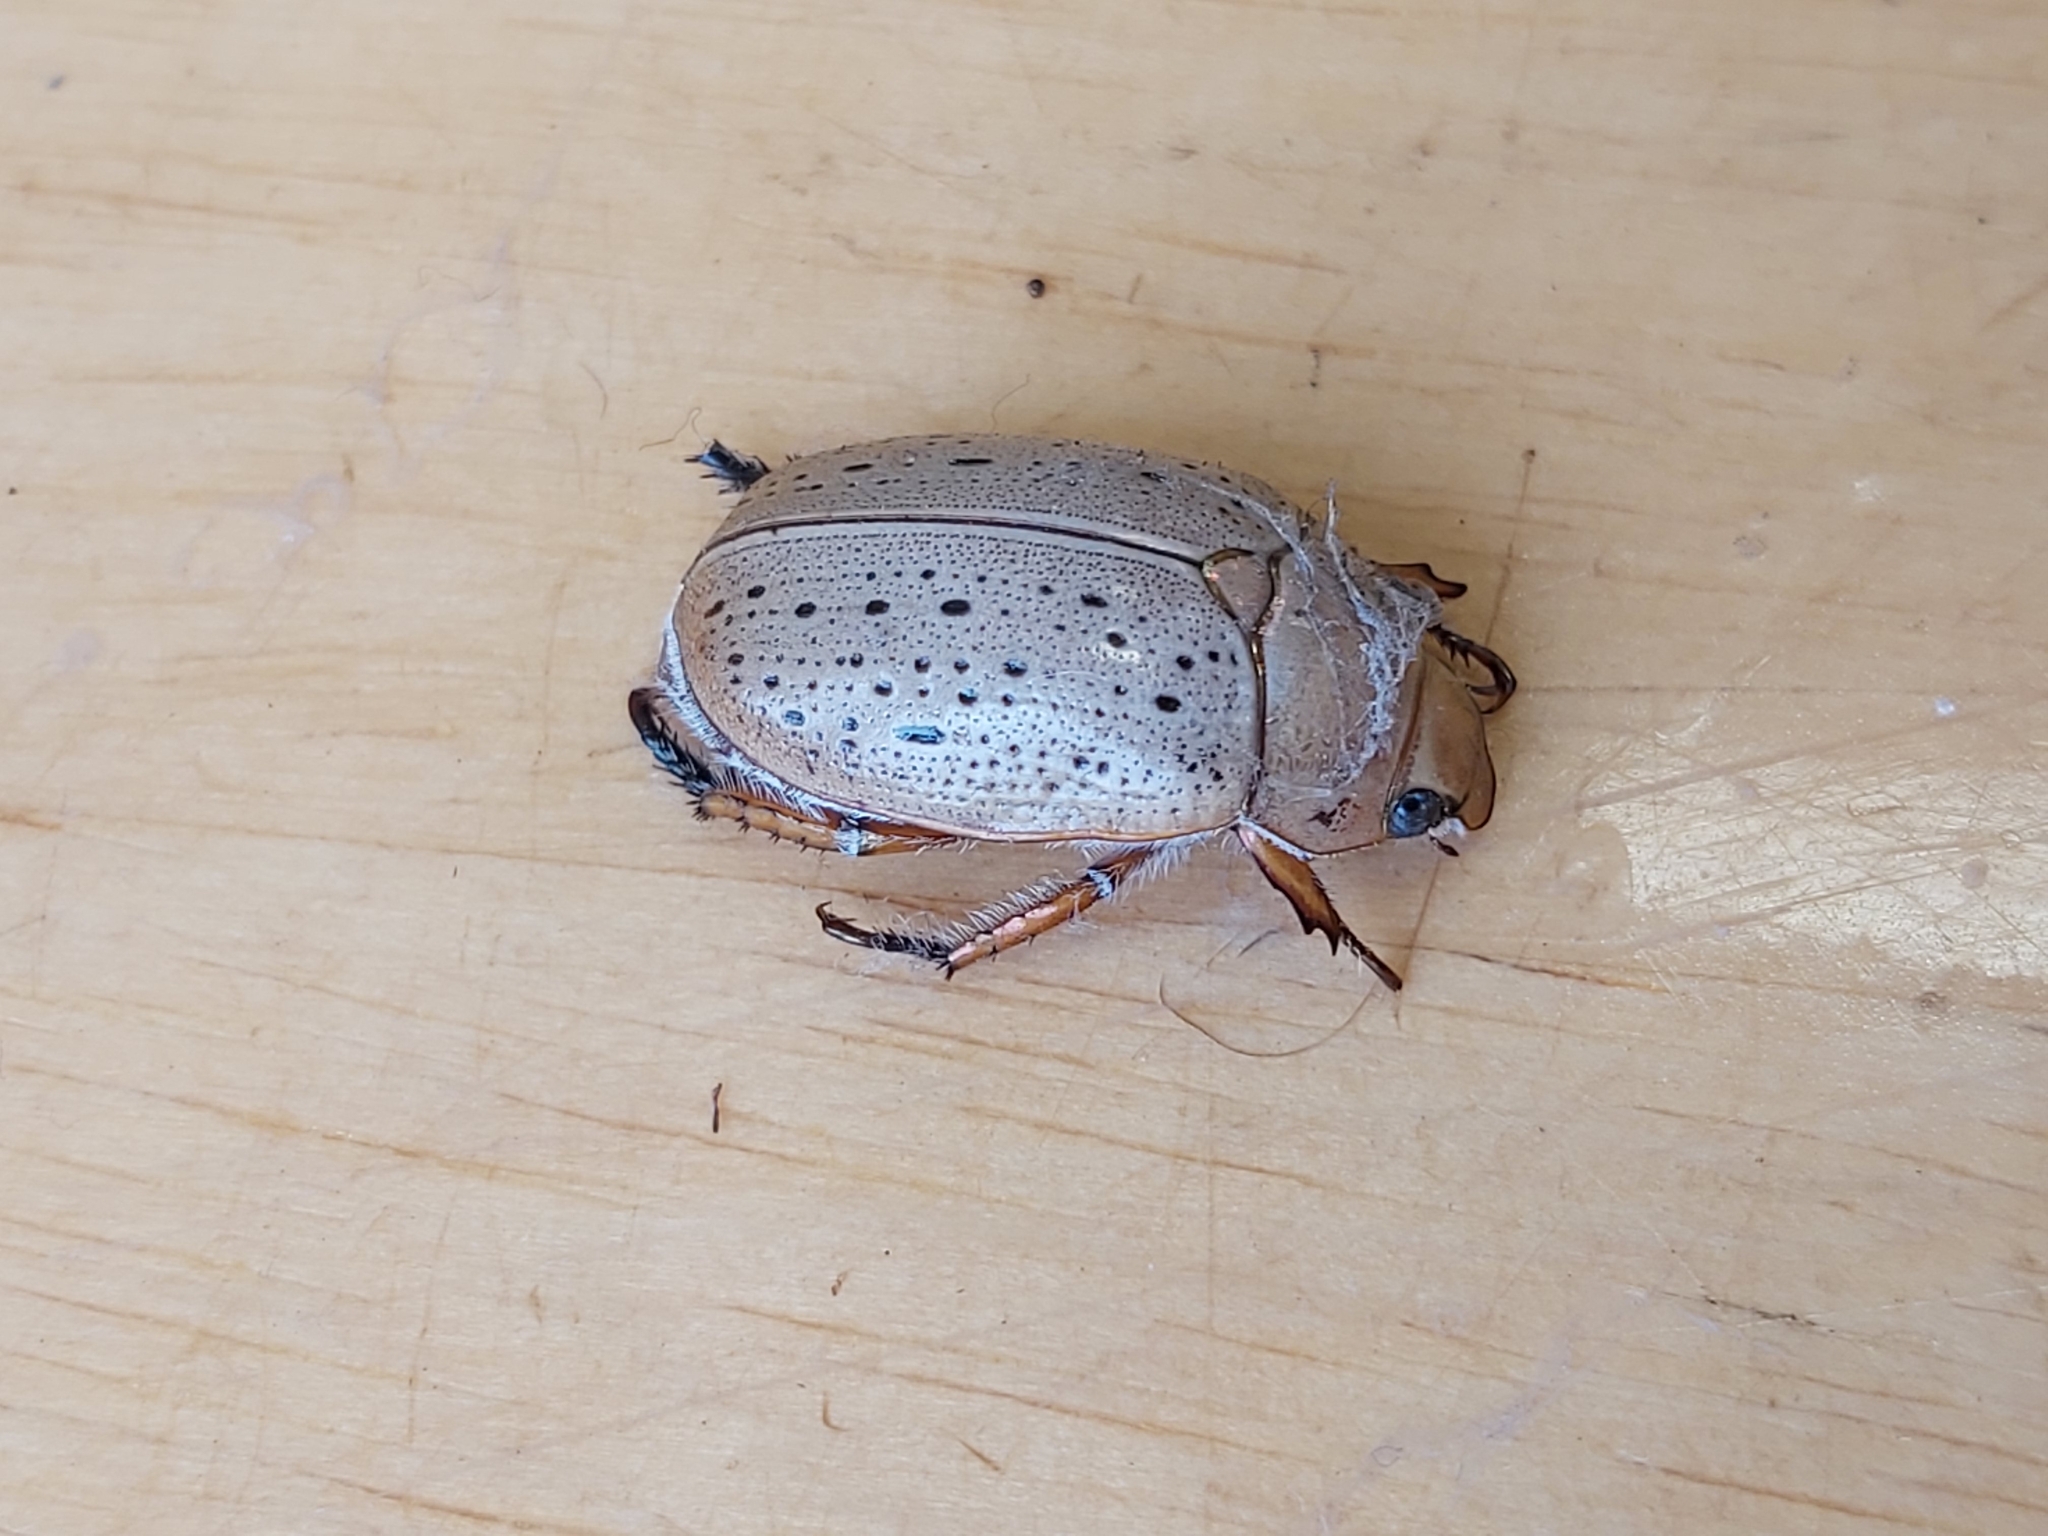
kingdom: Animalia
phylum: Arthropoda
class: Insecta
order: Coleoptera
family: Scarabaeidae
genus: Anoplognathus
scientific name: Anoplognathus porosus
